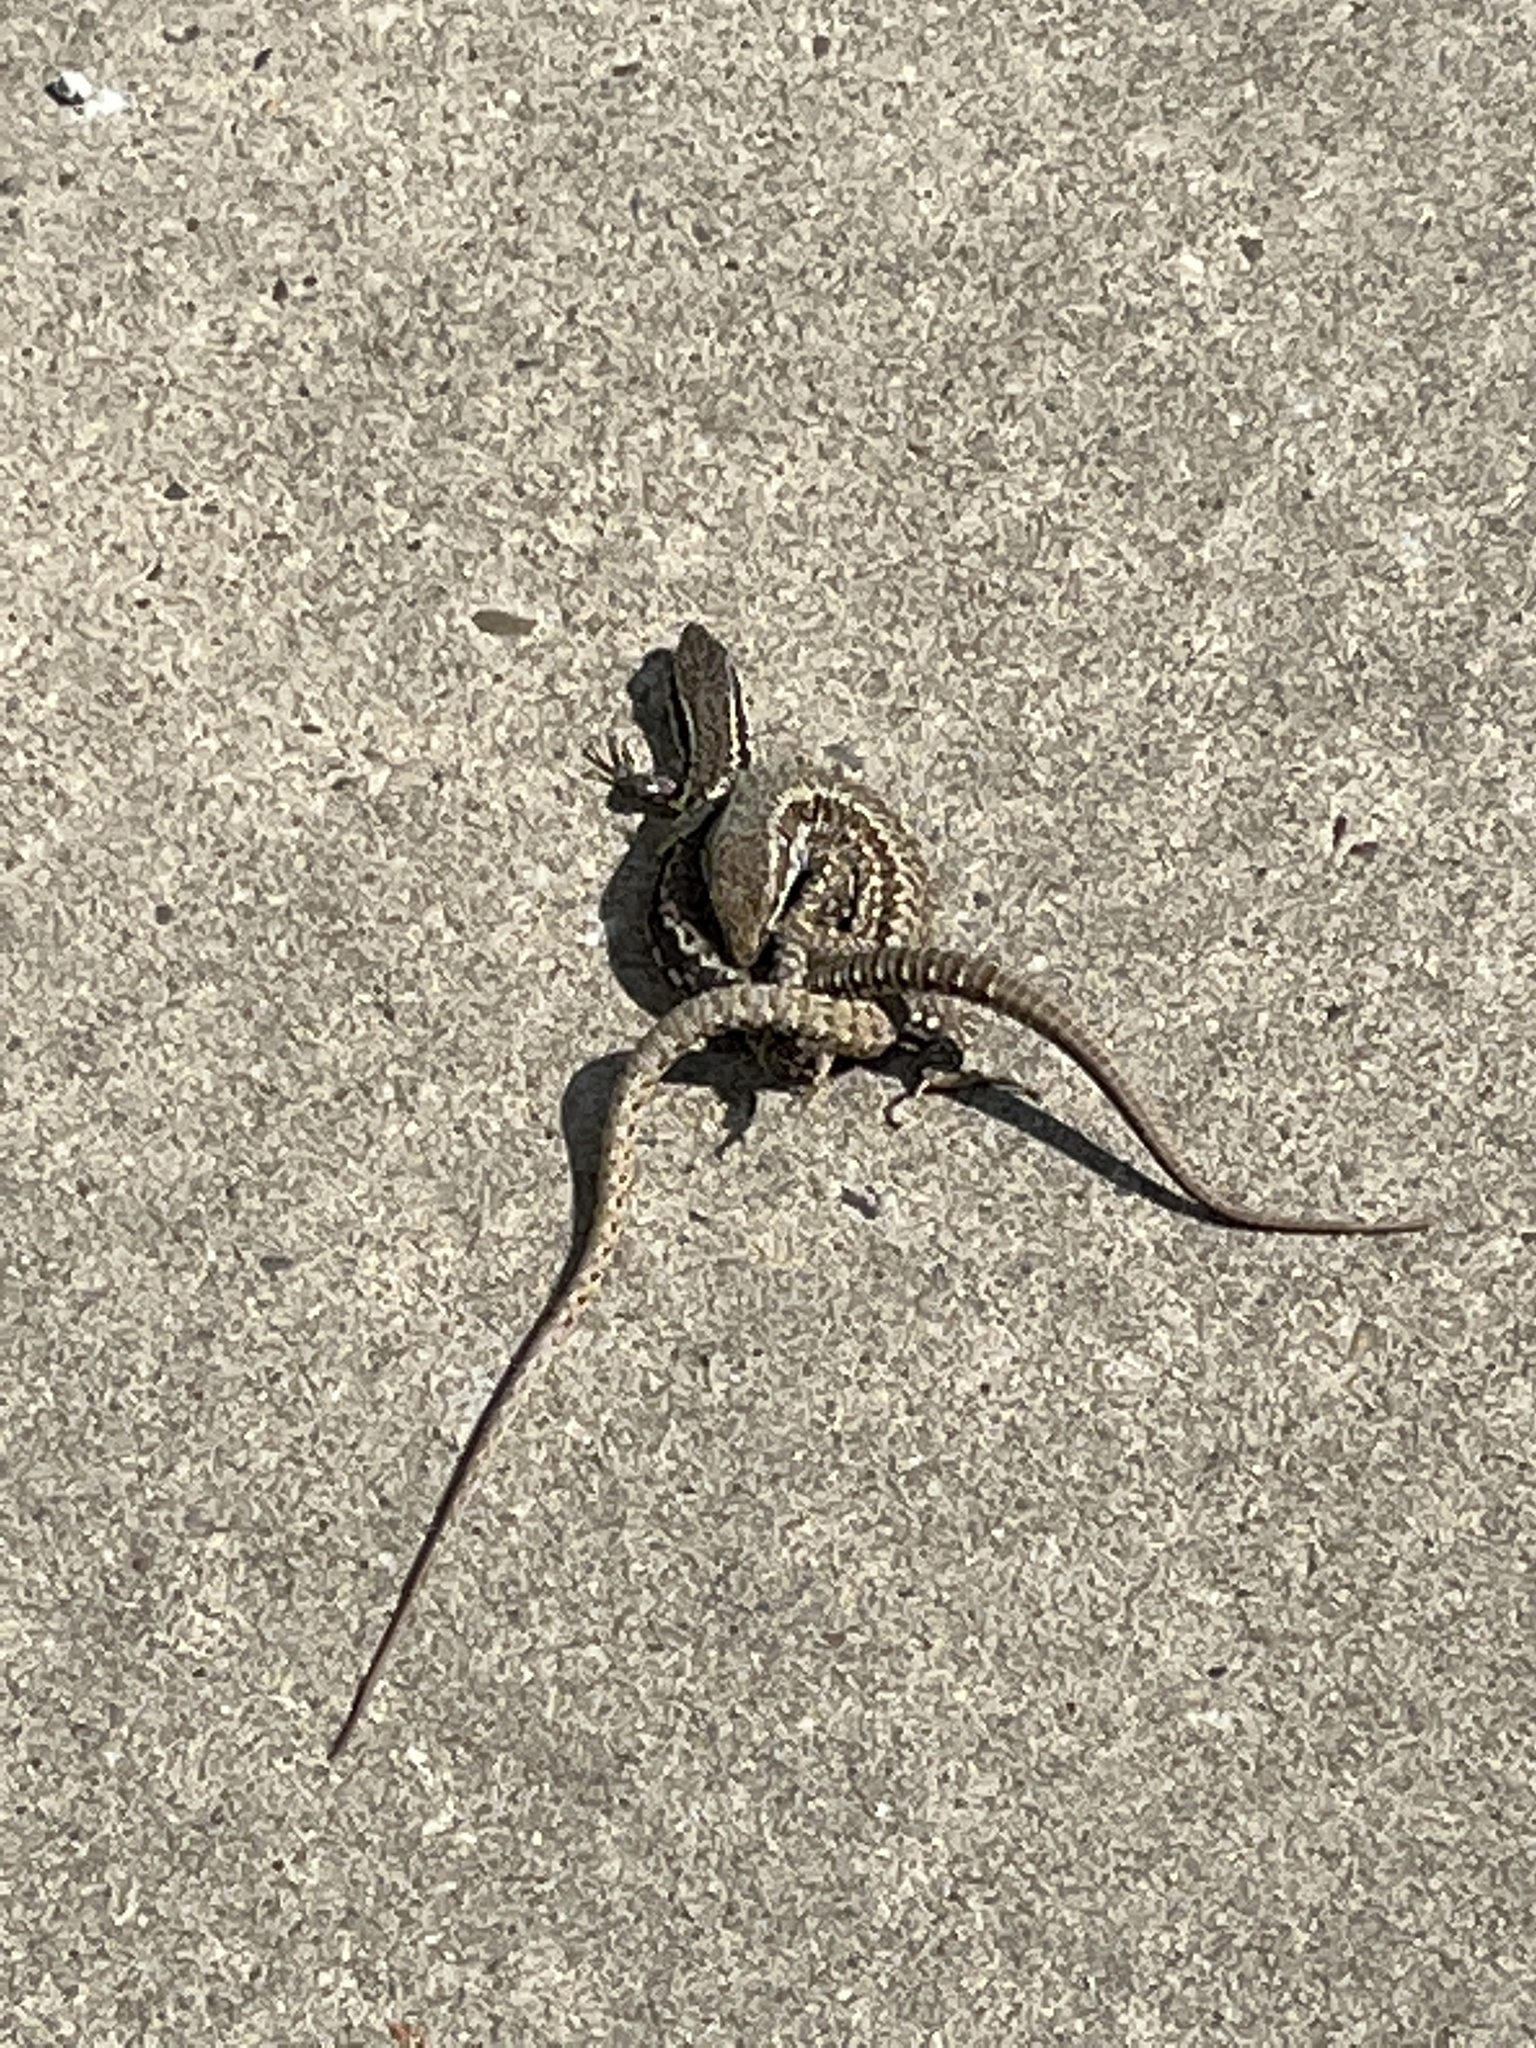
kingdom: Animalia
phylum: Chordata
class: Squamata
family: Lacertidae
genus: Podarcis
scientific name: Podarcis muralis
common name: Common wall lizard
